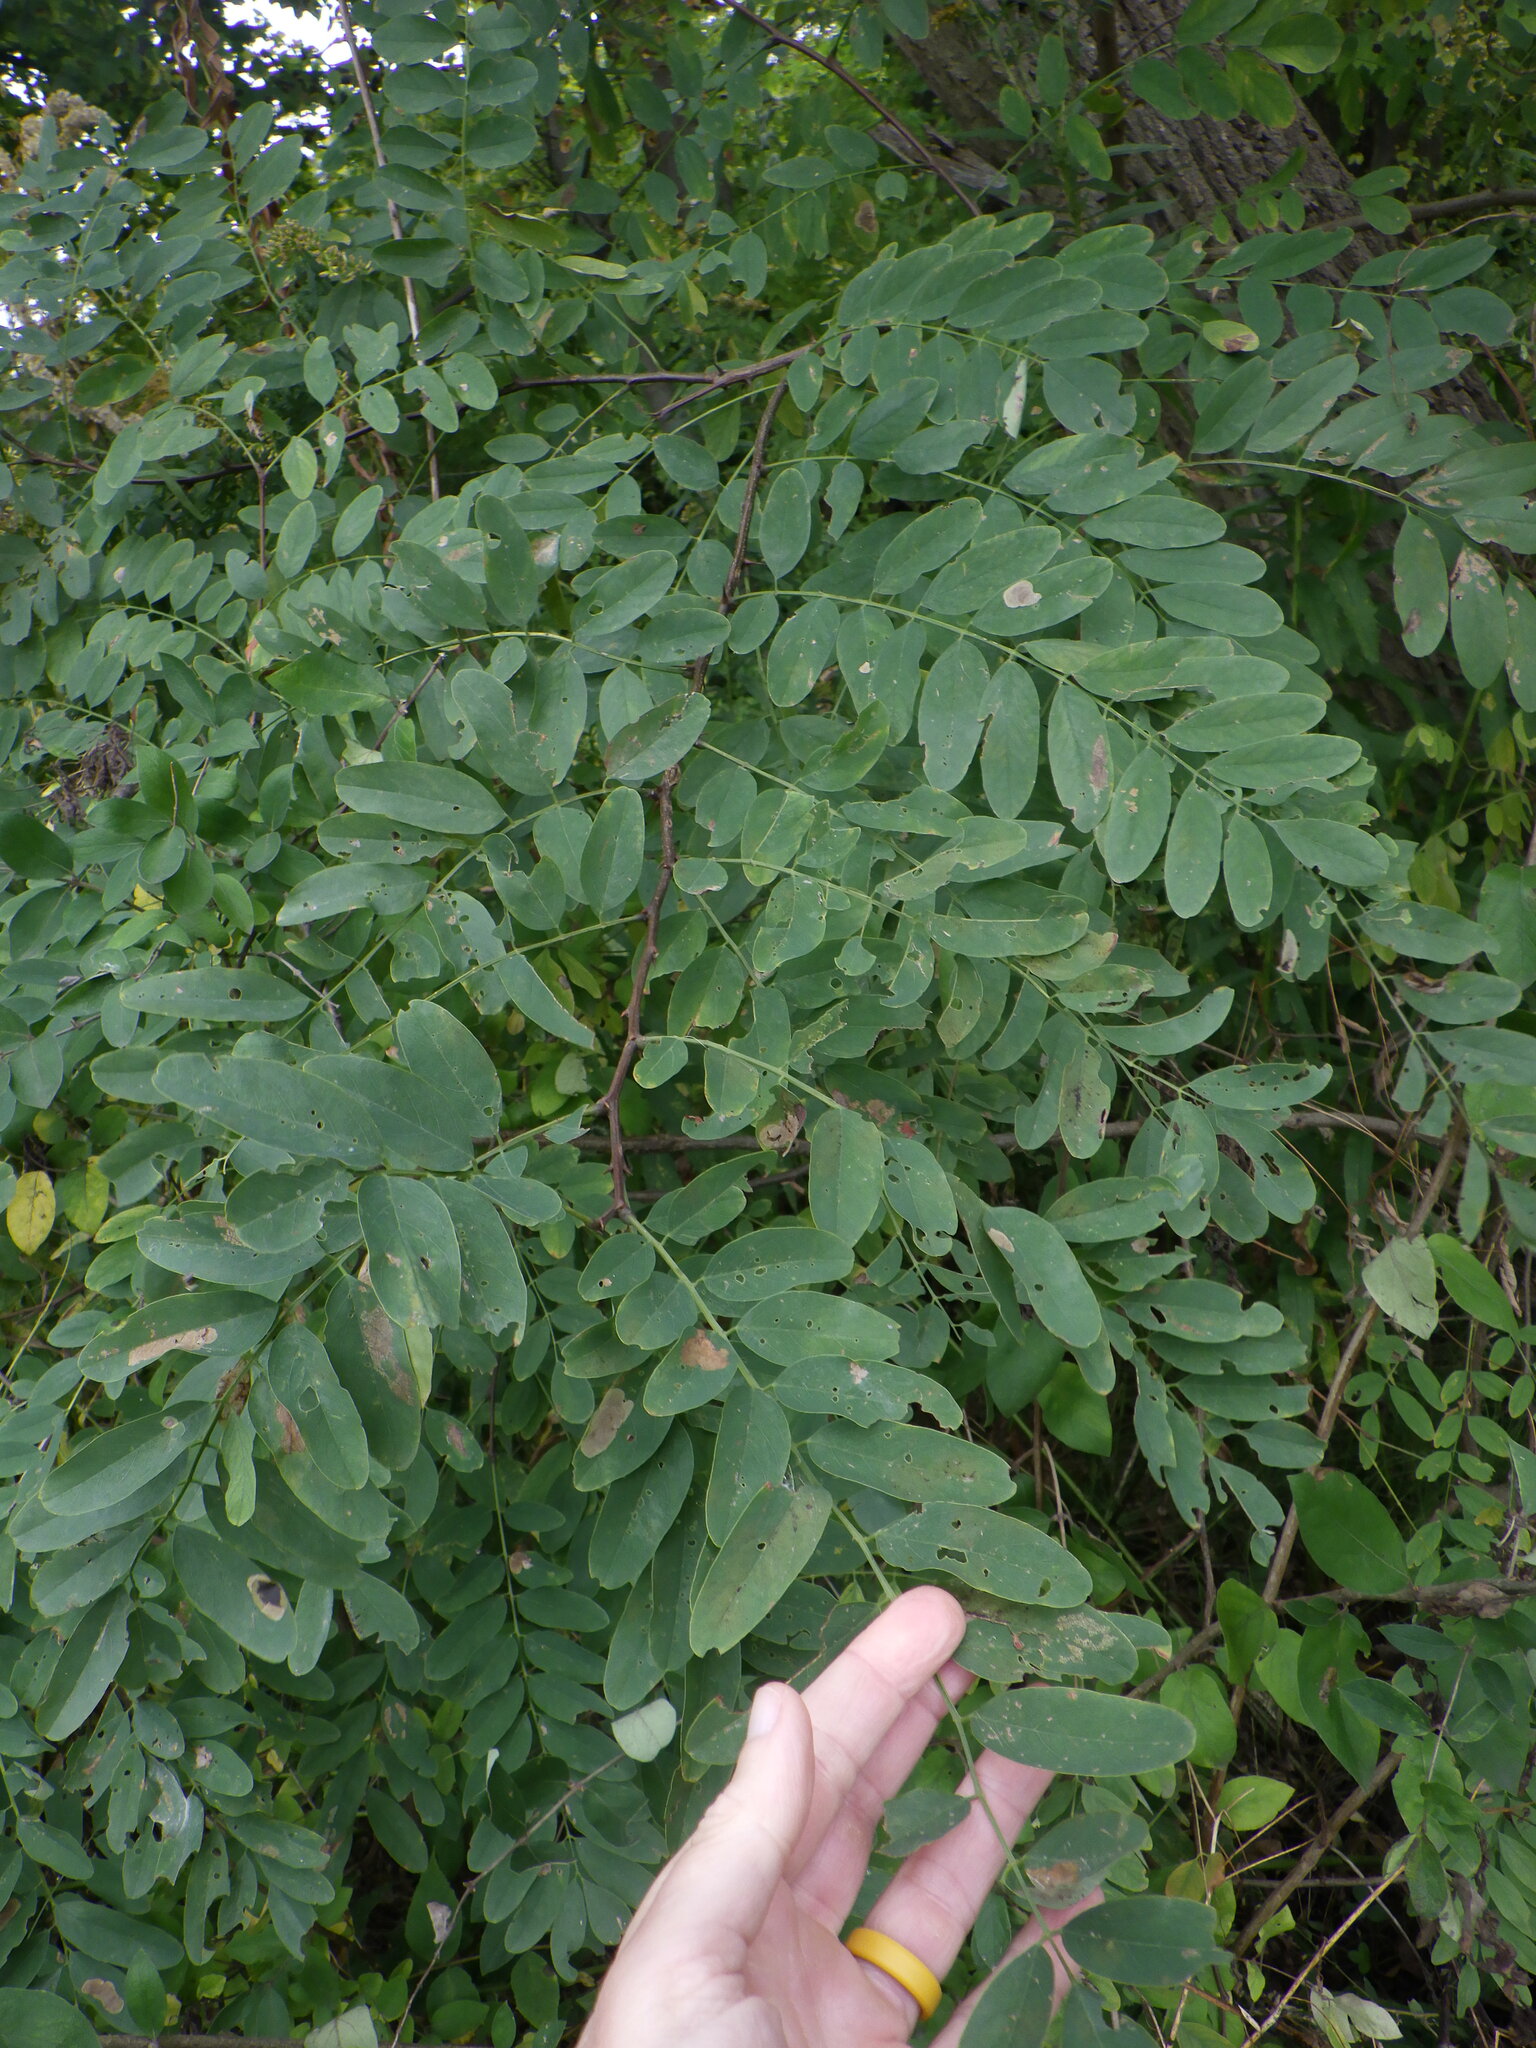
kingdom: Plantae
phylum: Tracheophyta
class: Magnoliopsida
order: Fabales
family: Fabaceae
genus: Robinia
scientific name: Robinia pseudoacacia
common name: Black locust
